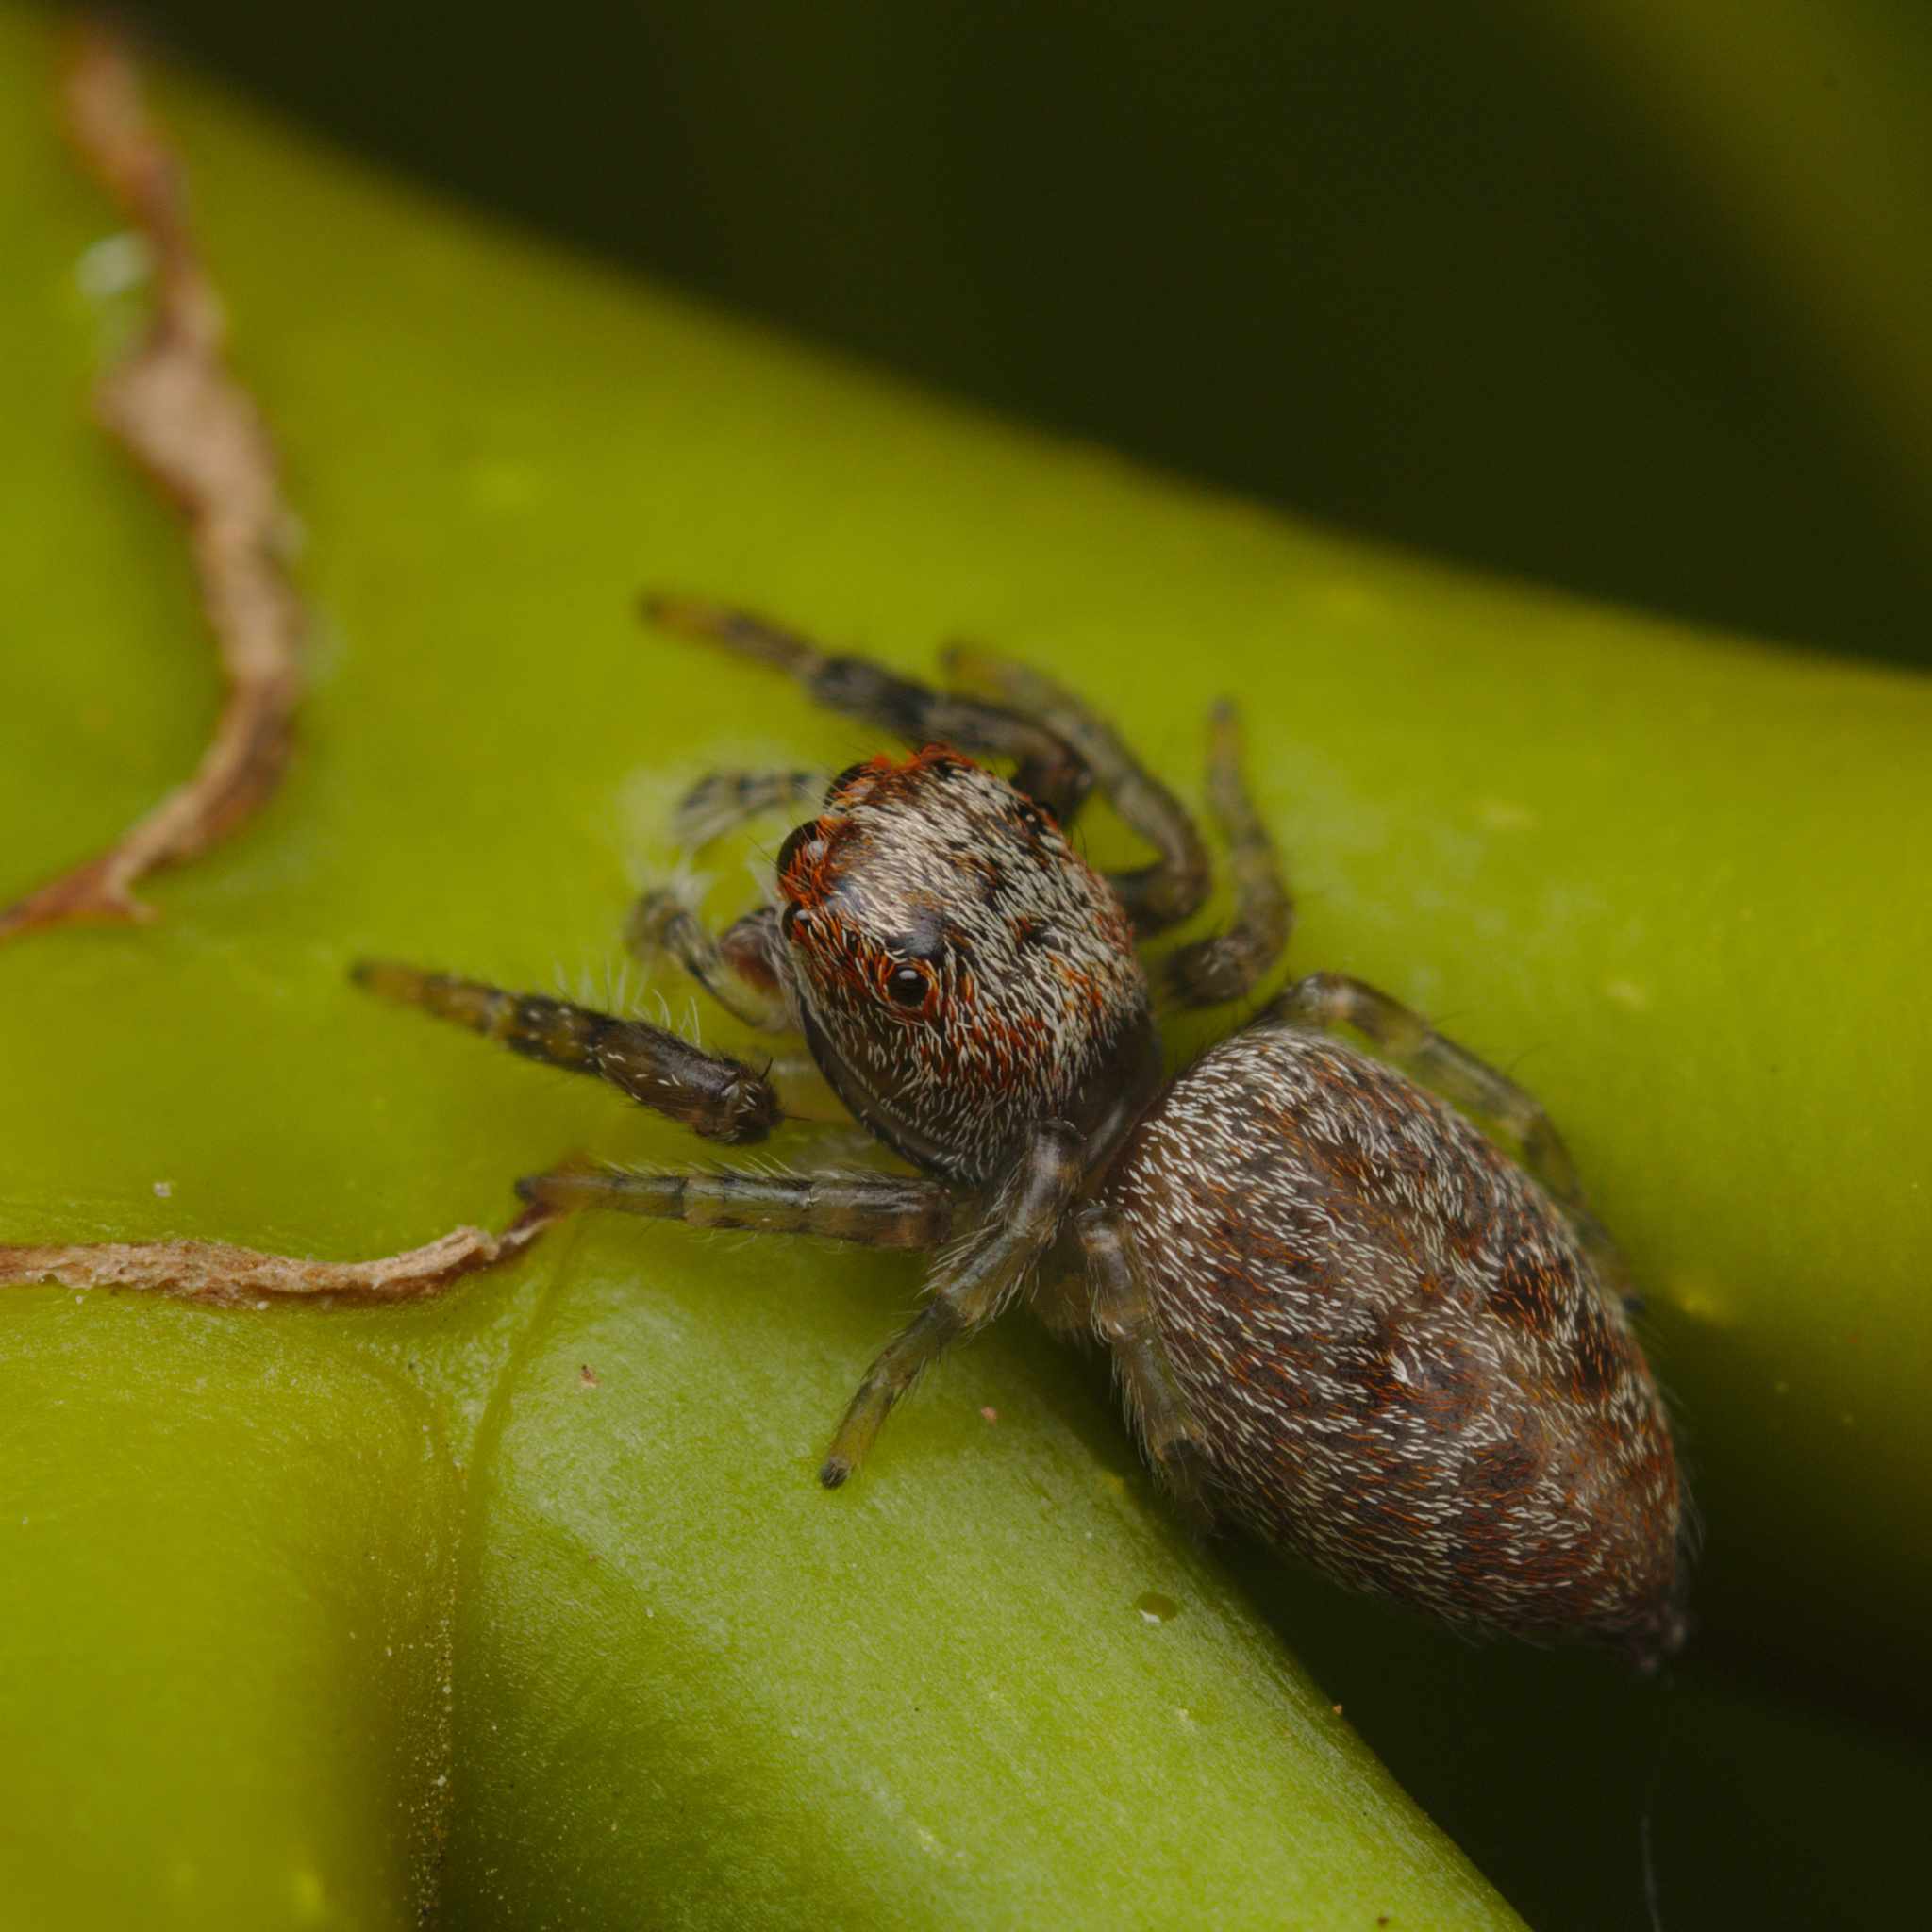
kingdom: Animalia
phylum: Arthropoda
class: Arachnida
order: Araneae
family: Salticidae
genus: Opisthoncus
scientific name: Opisthoncus polyphemus
